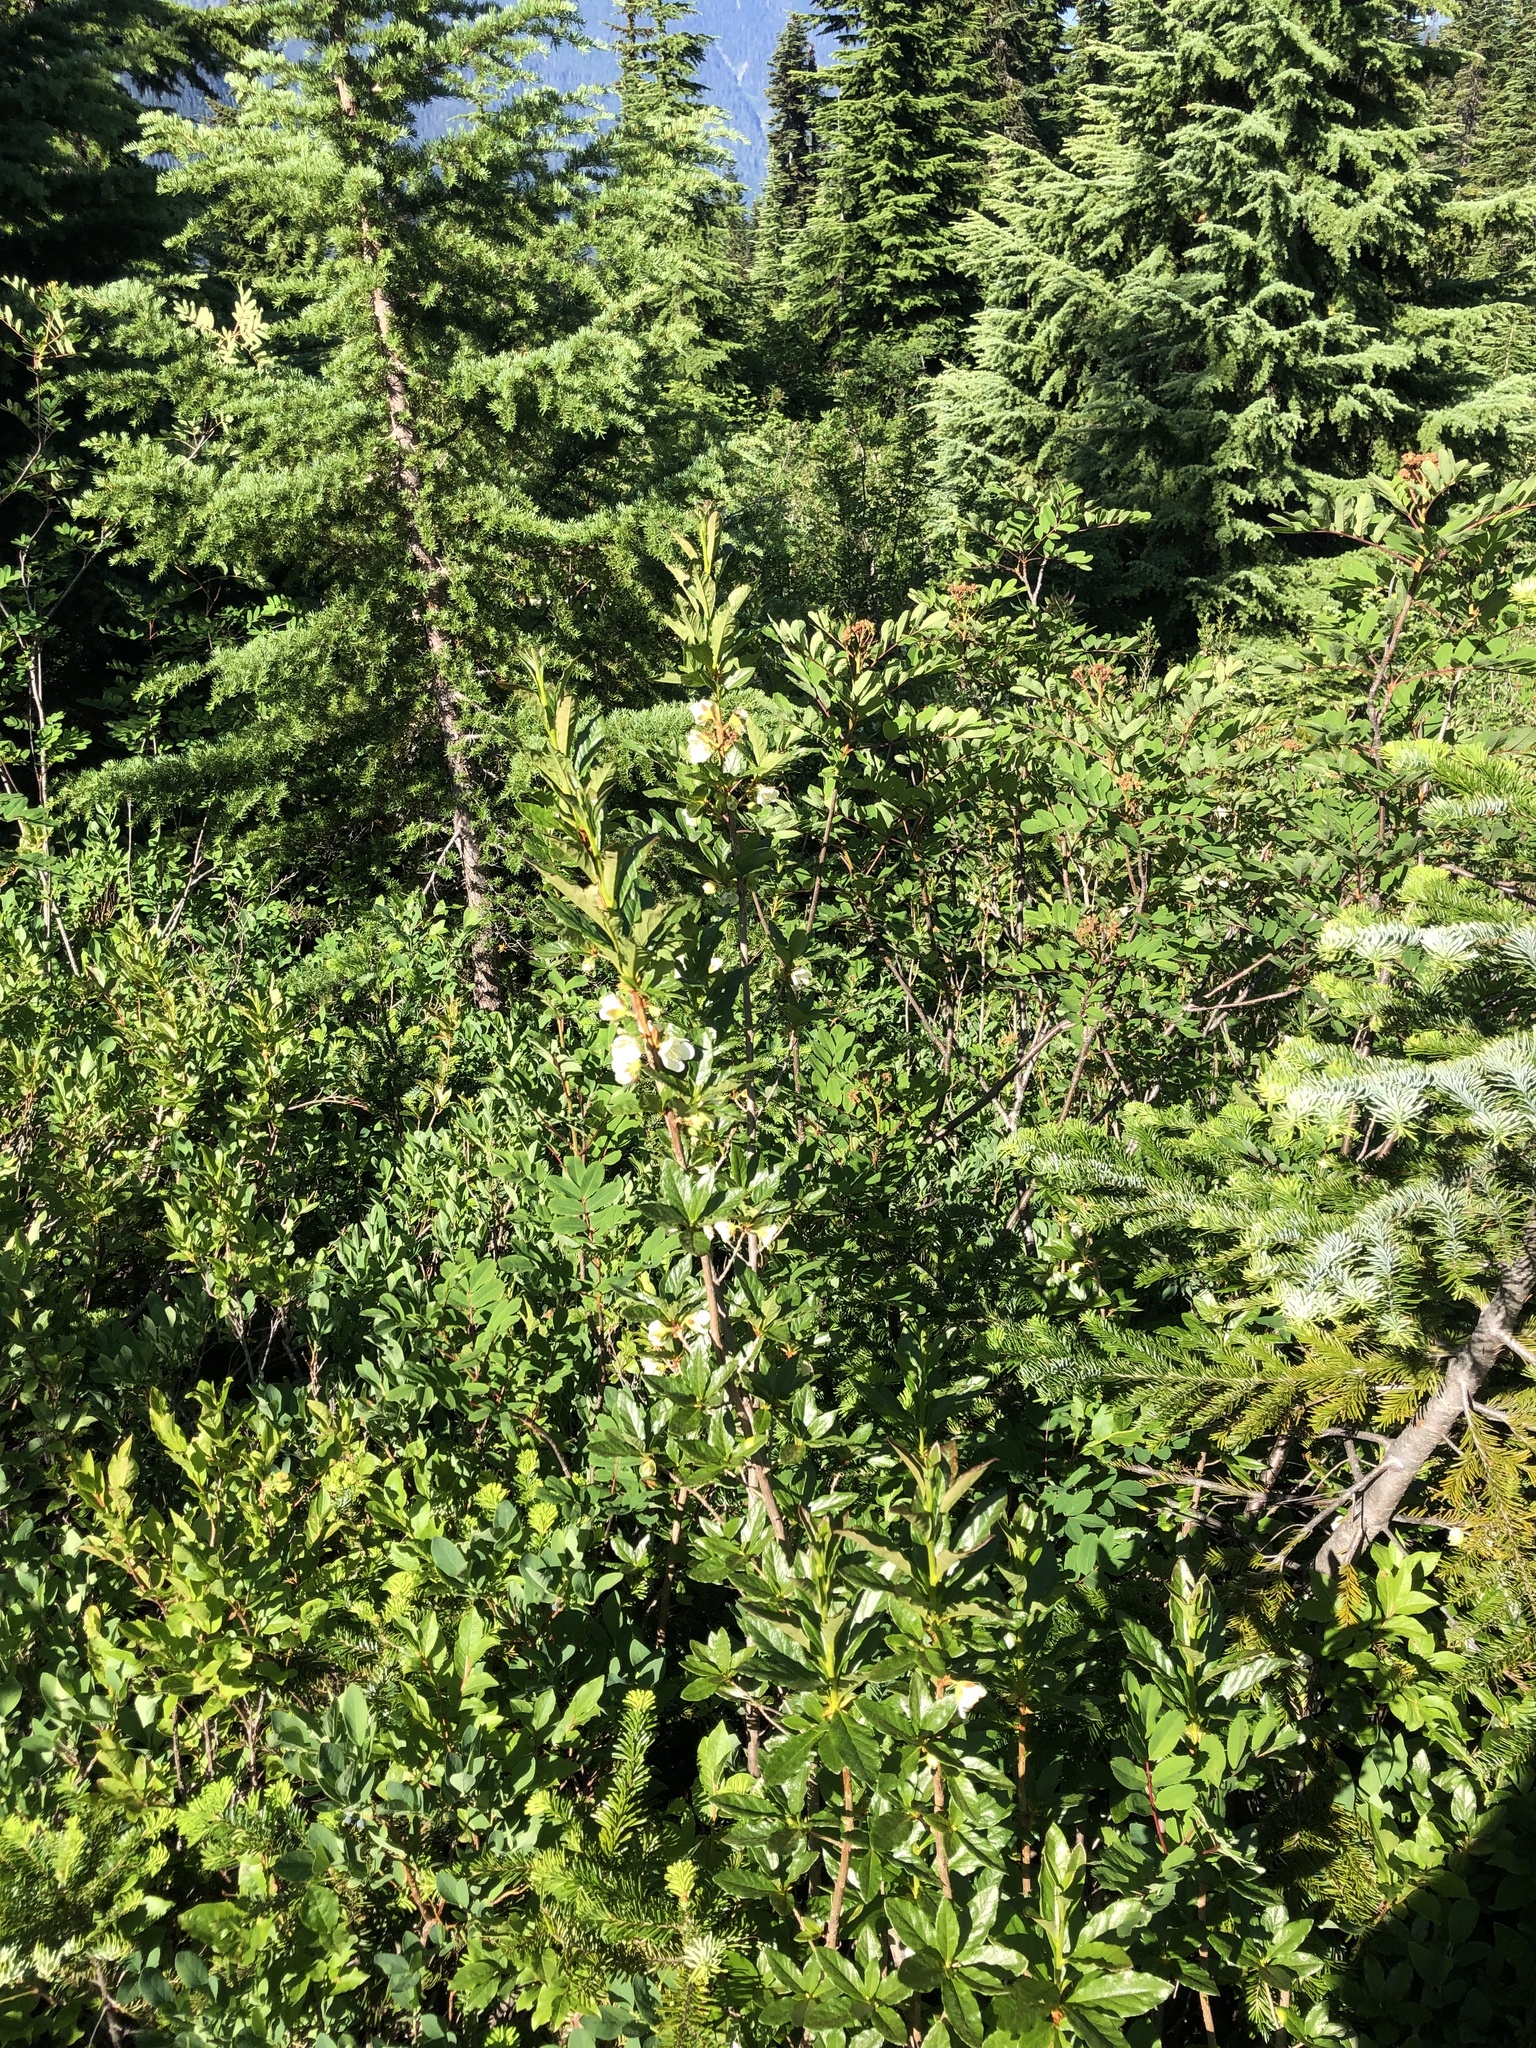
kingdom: Plantae
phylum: Tracheophyta
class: Magnoliopsida
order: Ericales
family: Ericaceae
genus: Rhododendron
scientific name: Rhododendron albiflorum
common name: White rhododendron
